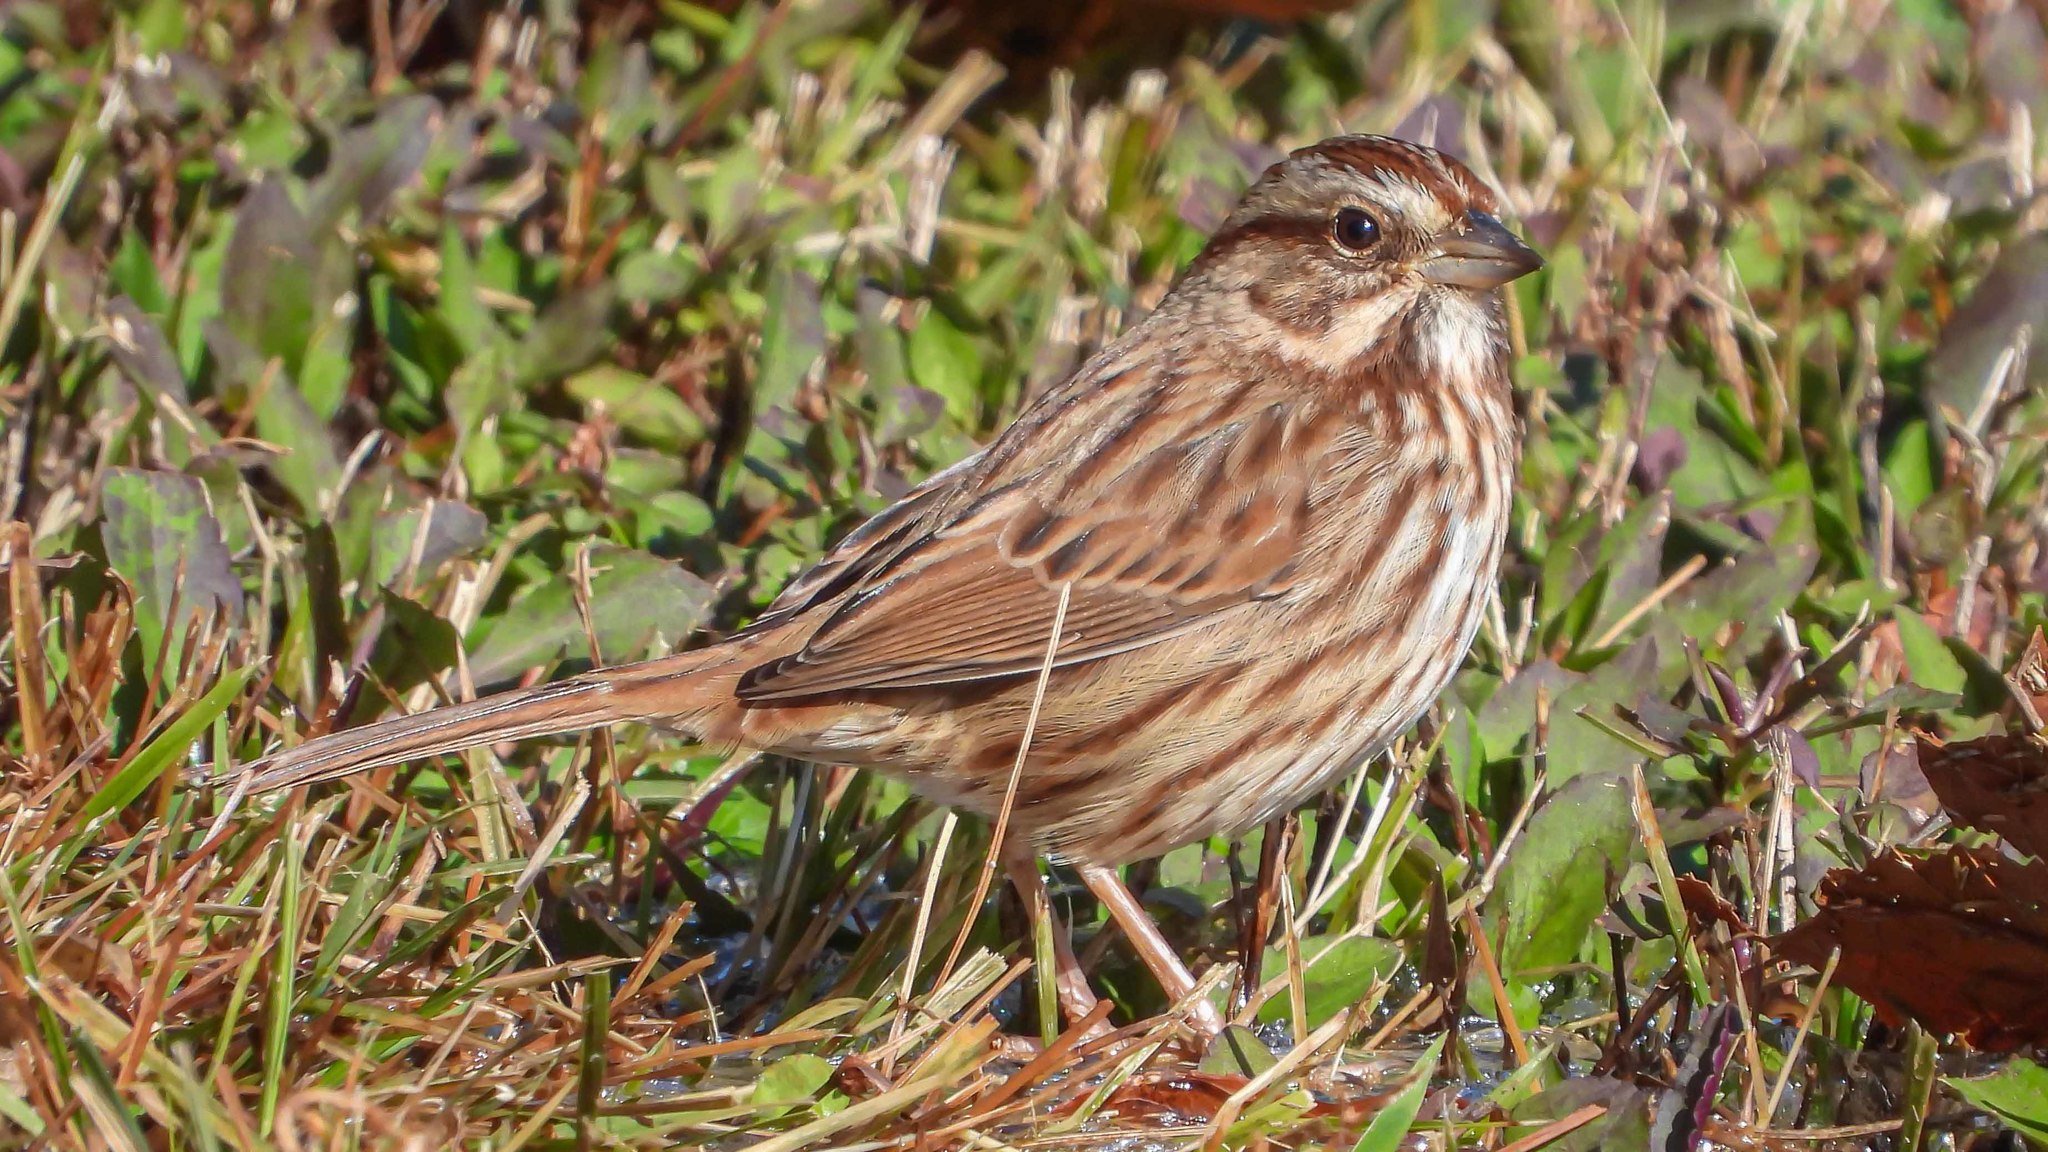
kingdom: Animalia
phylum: Chordata
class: Aves
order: Passeriformes
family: Passerellidae
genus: Melospiza
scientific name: Melospiza melodia
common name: Song sparrow
